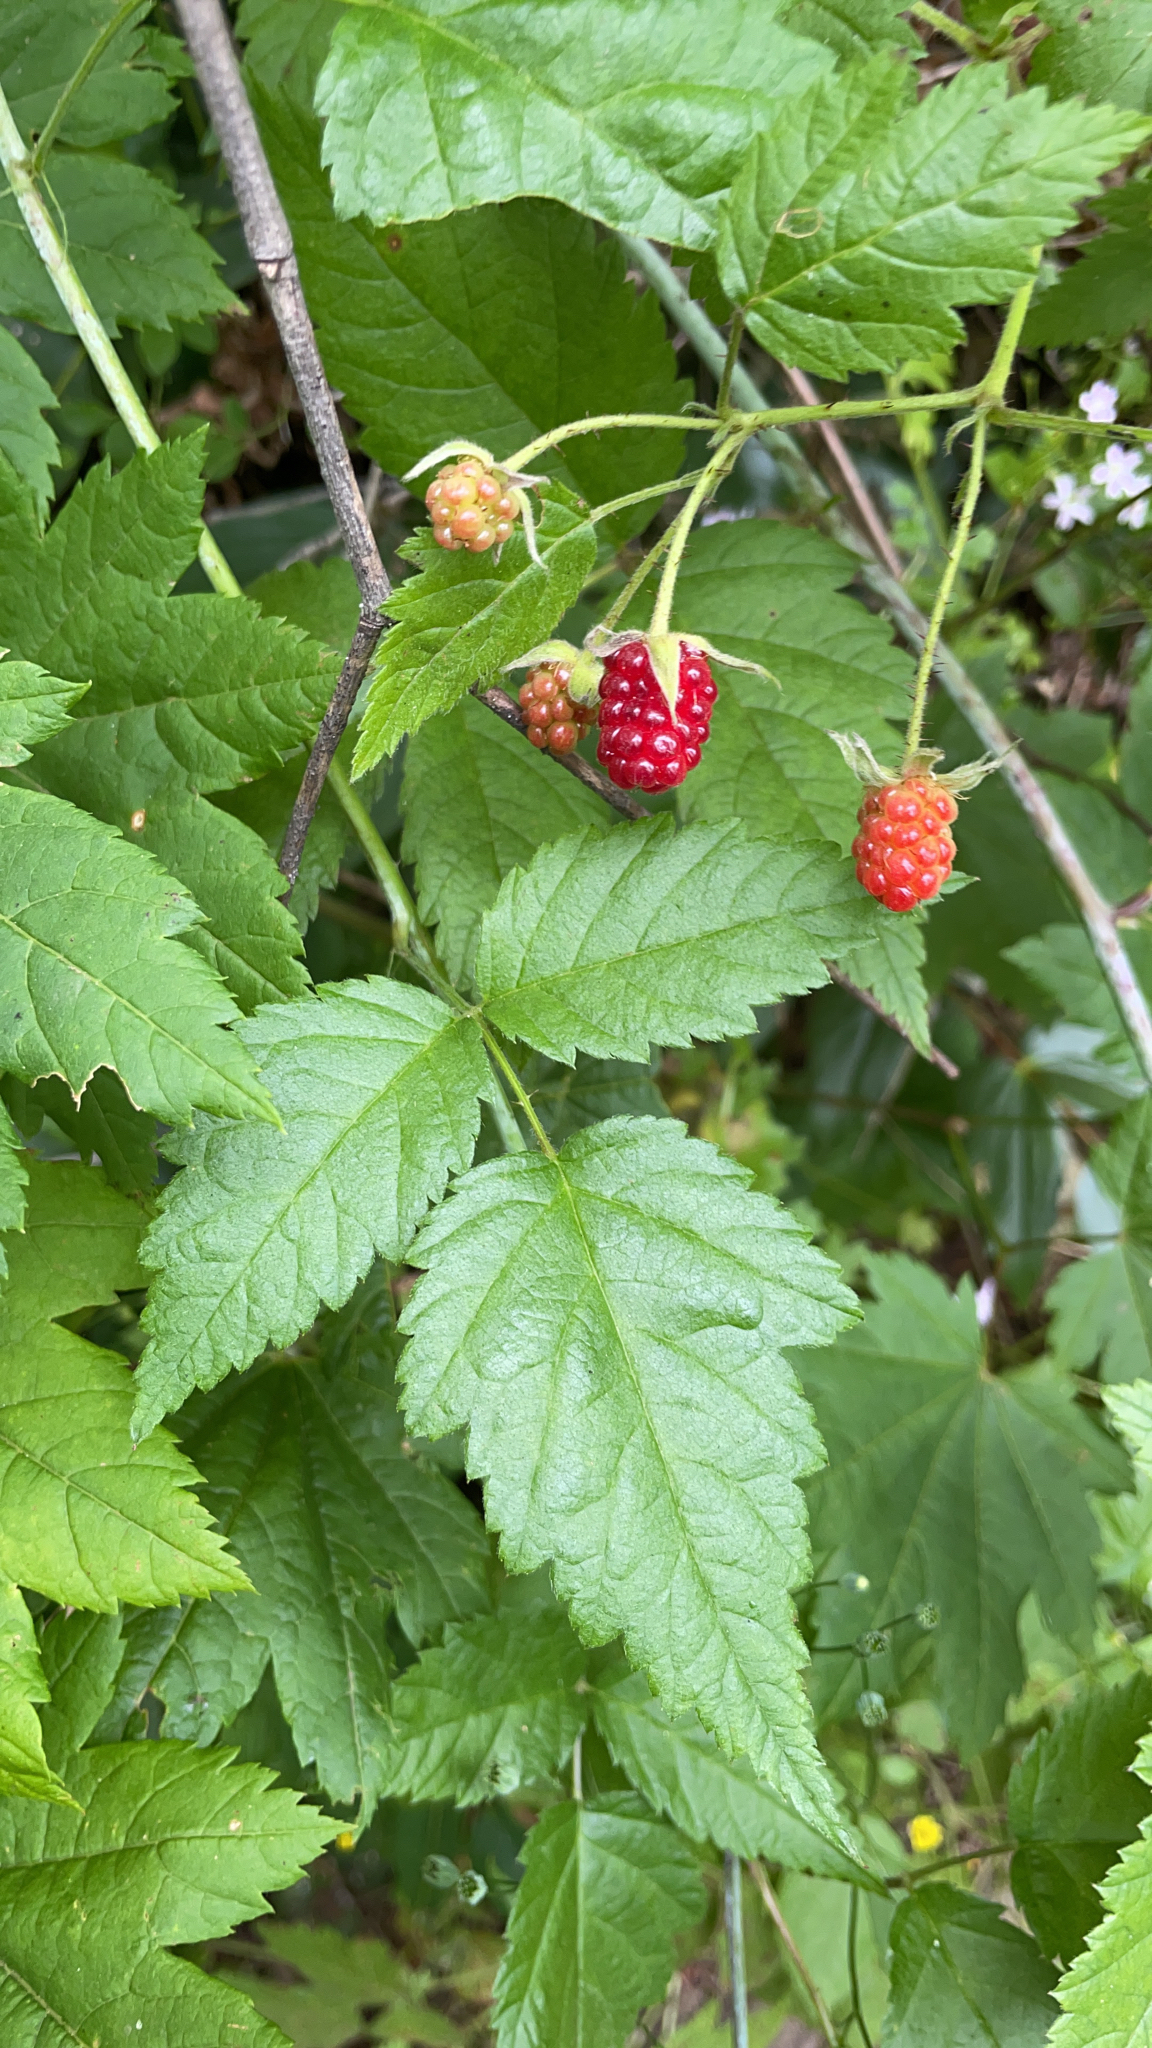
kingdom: Plantae
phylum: Tracheophyta
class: Magnoliopsida
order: Rosales
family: Rosaceae
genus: Rubus
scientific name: Rubus ursinus
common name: Pacific blackberry
